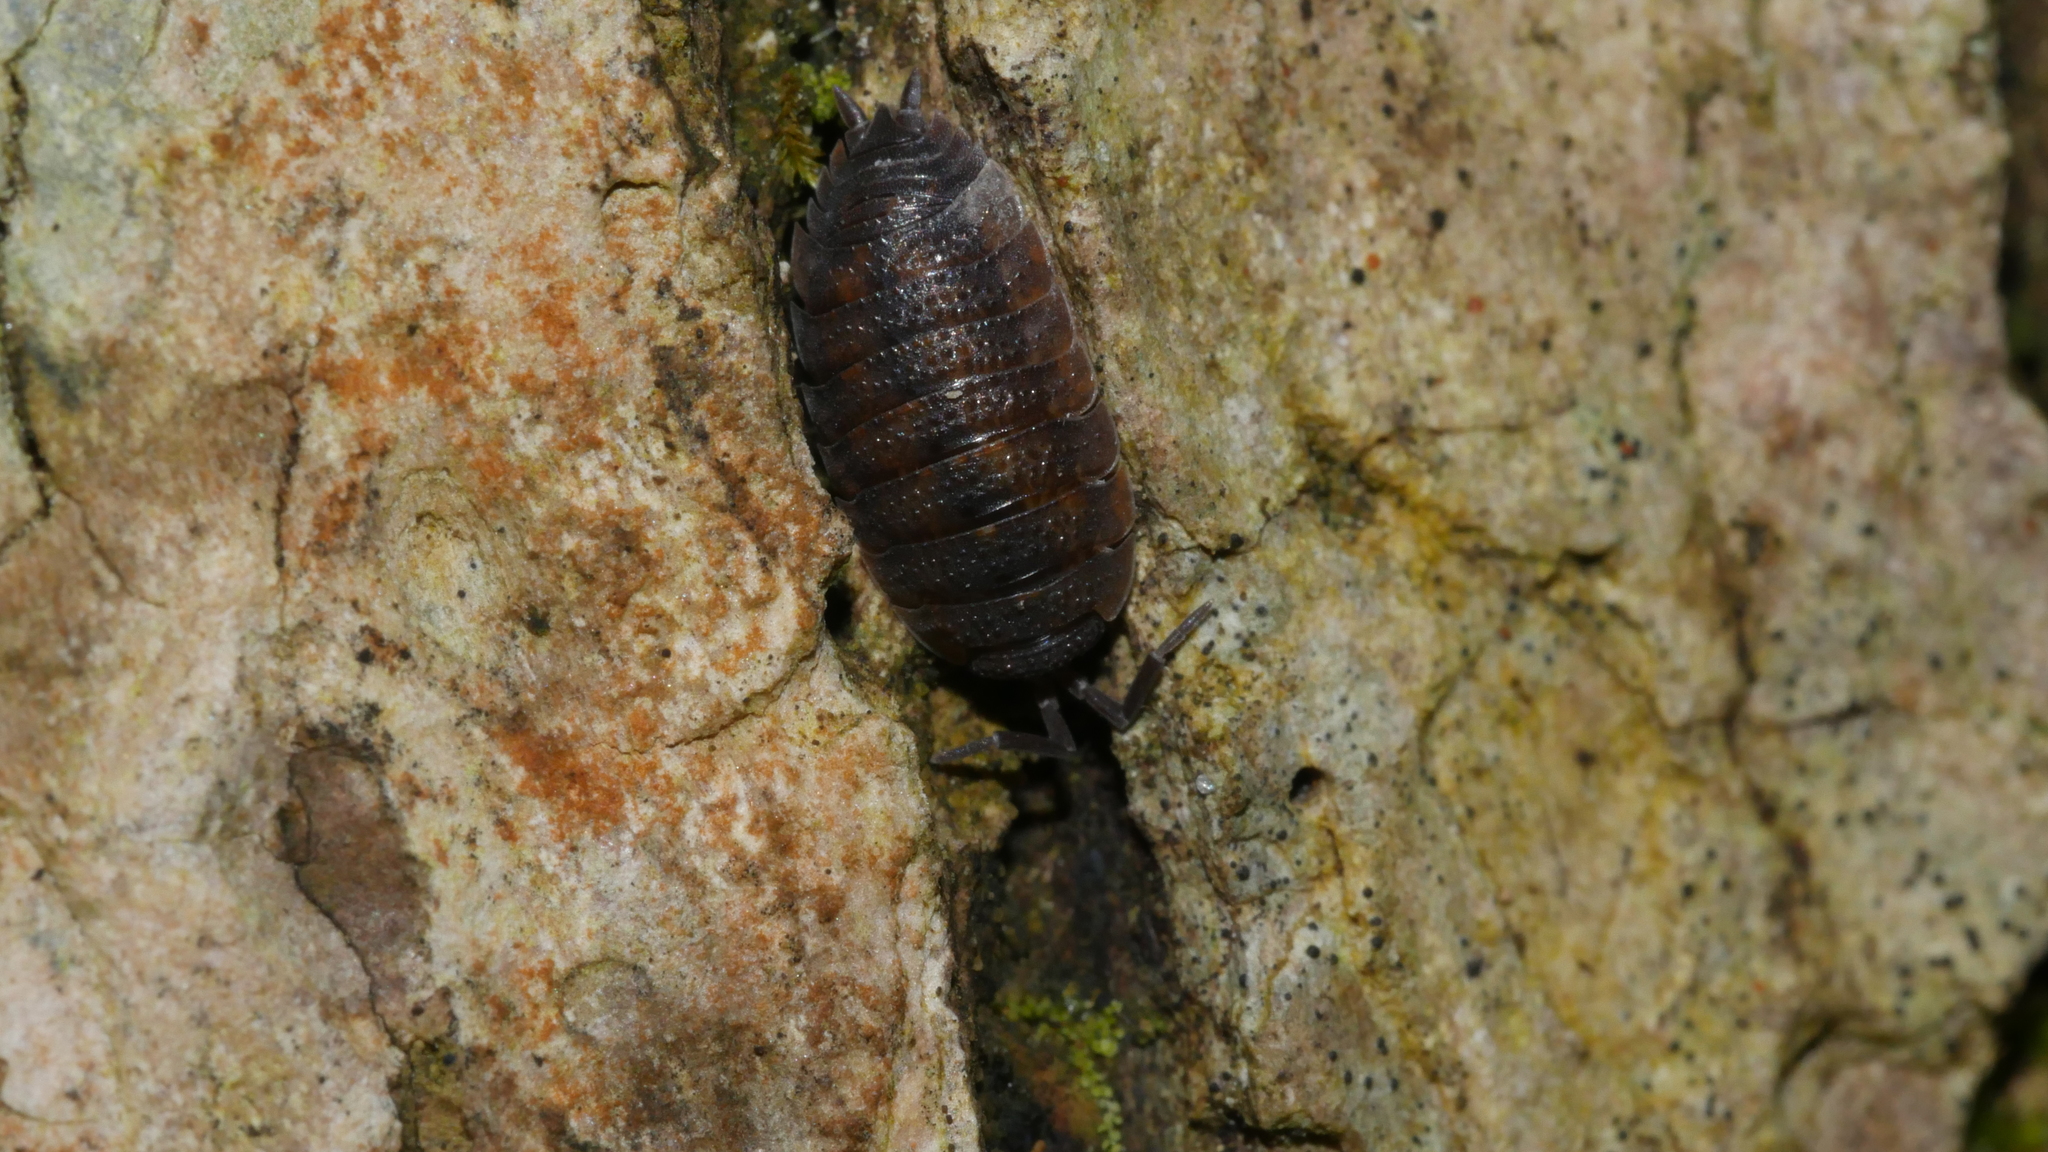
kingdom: Animalia
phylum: Arthropoda
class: Malacostraca
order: Isopoda
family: Porcellionidae
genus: Porcellio
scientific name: Porcellio scaber
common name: Common rough woodlouse
